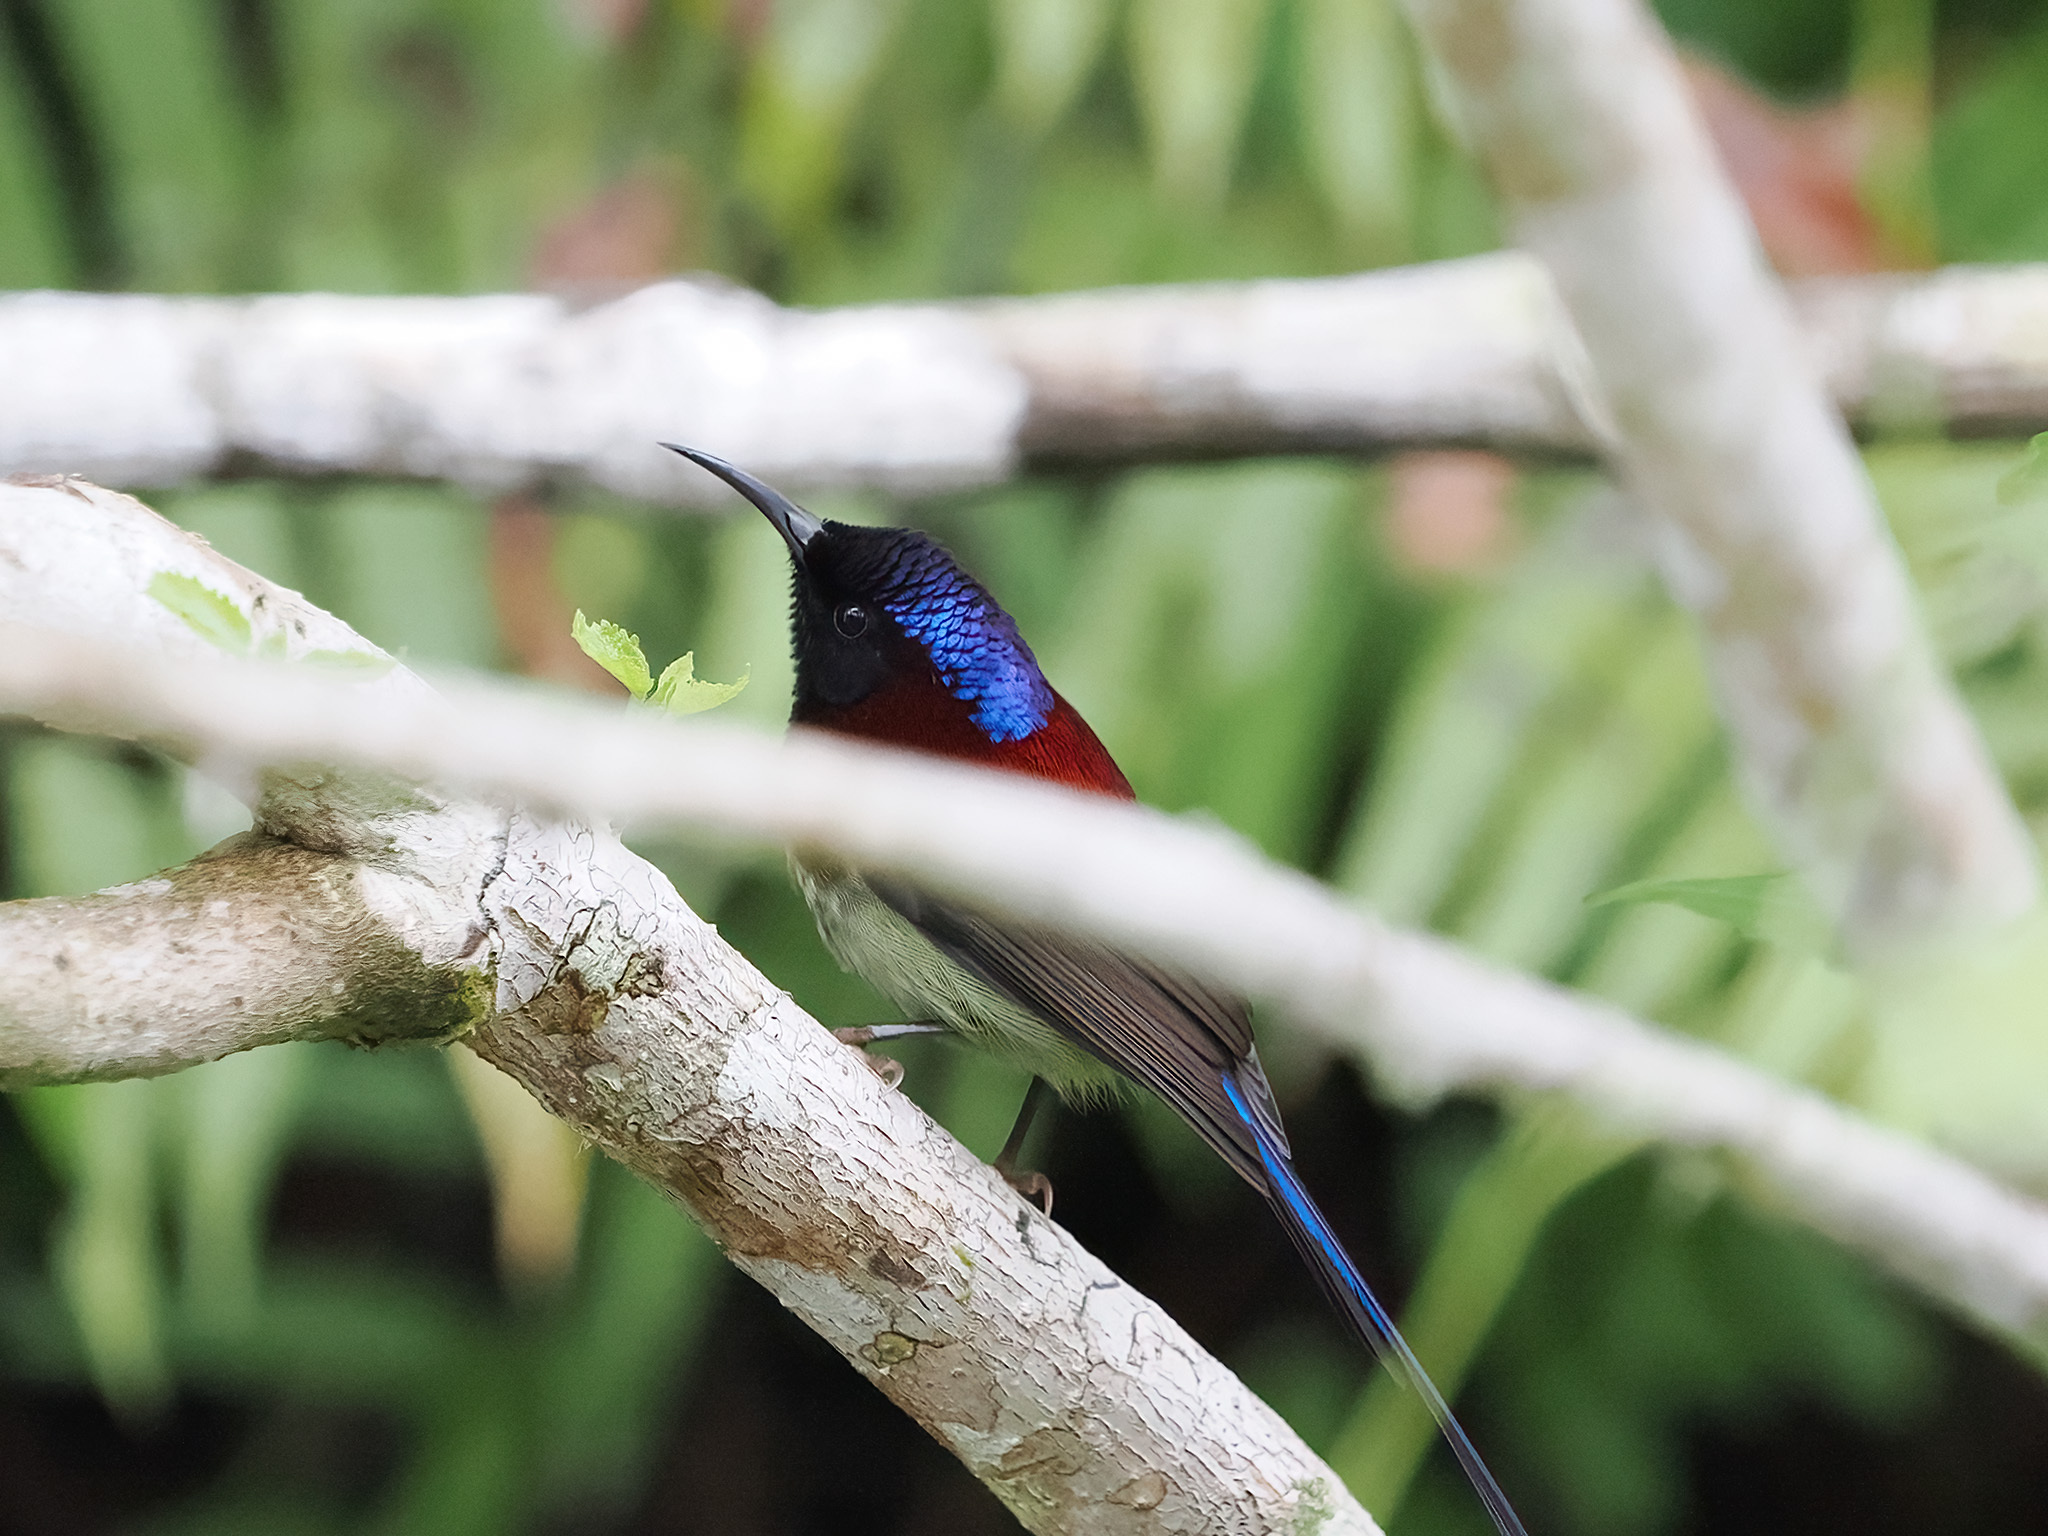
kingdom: Animalia
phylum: Chordata
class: Aves
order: Passeriformes
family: Nectariniidae
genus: Aethopyga
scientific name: Aethopyga saturata
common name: Black-throated sunbird
